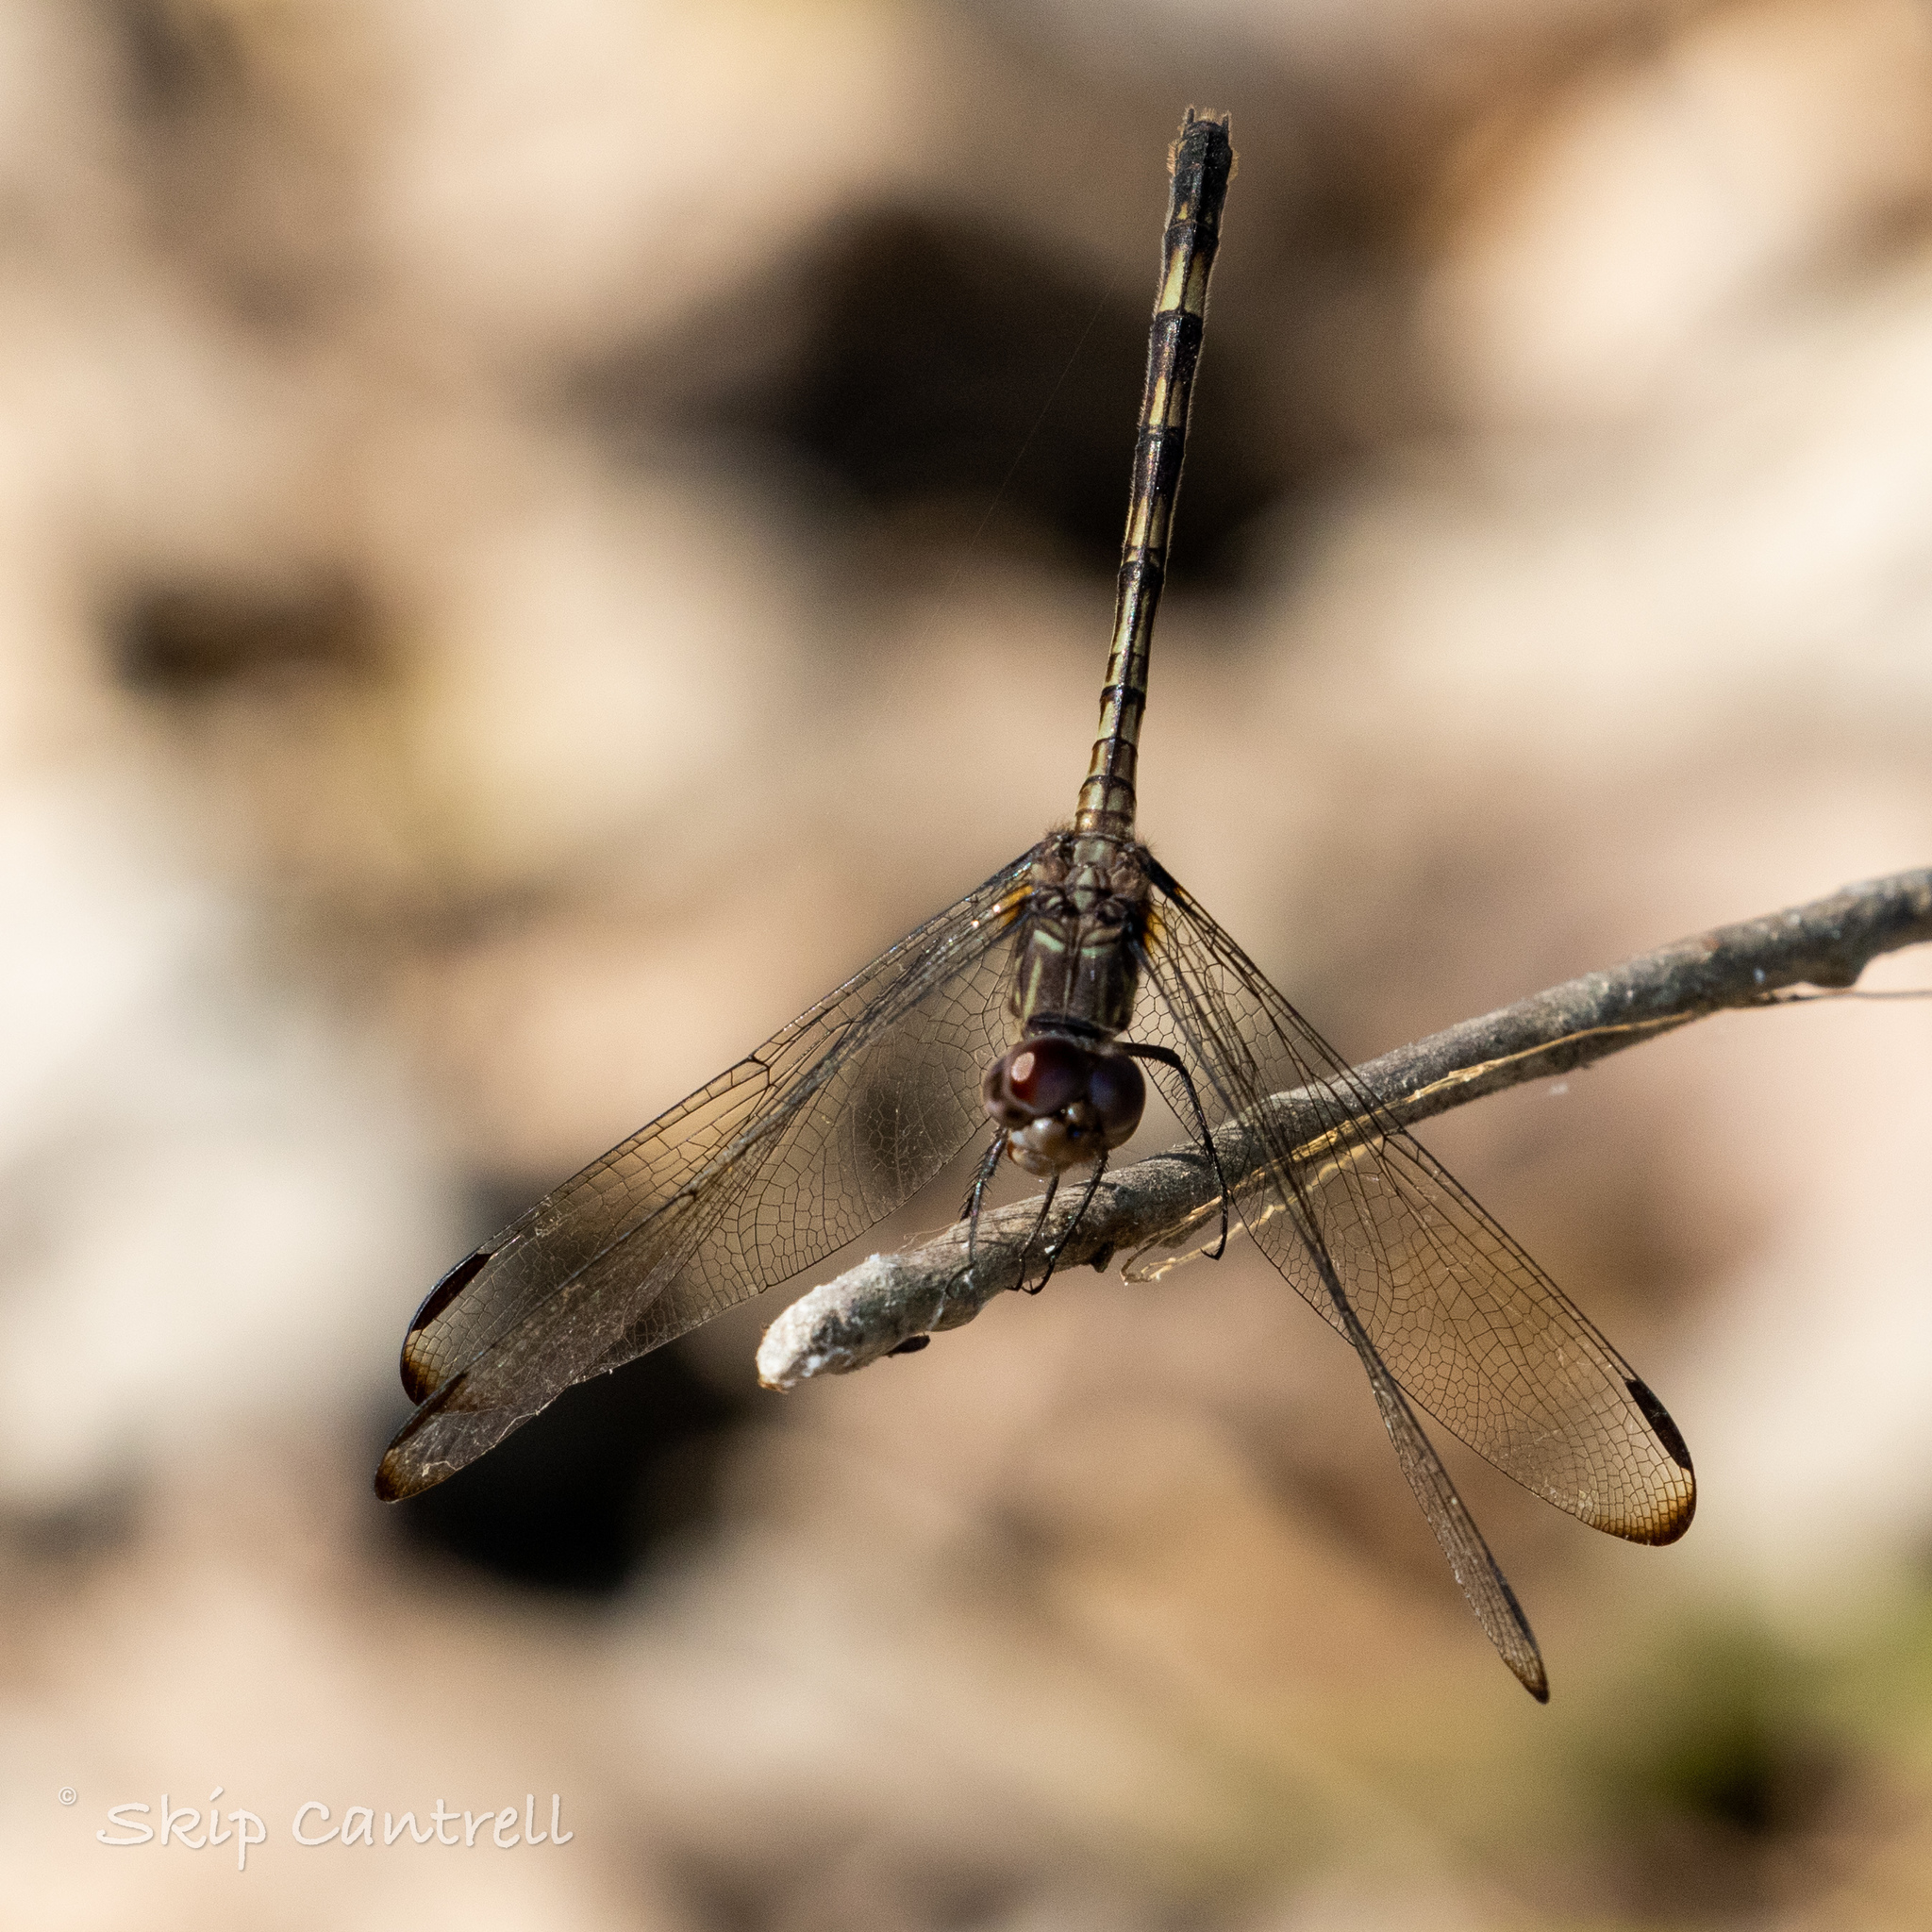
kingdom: Animalia
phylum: Arthropoda
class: Insecta
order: Odonata
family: Libellulidae
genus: Dythemis
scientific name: Dythemis nigrescens
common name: Black setwing
